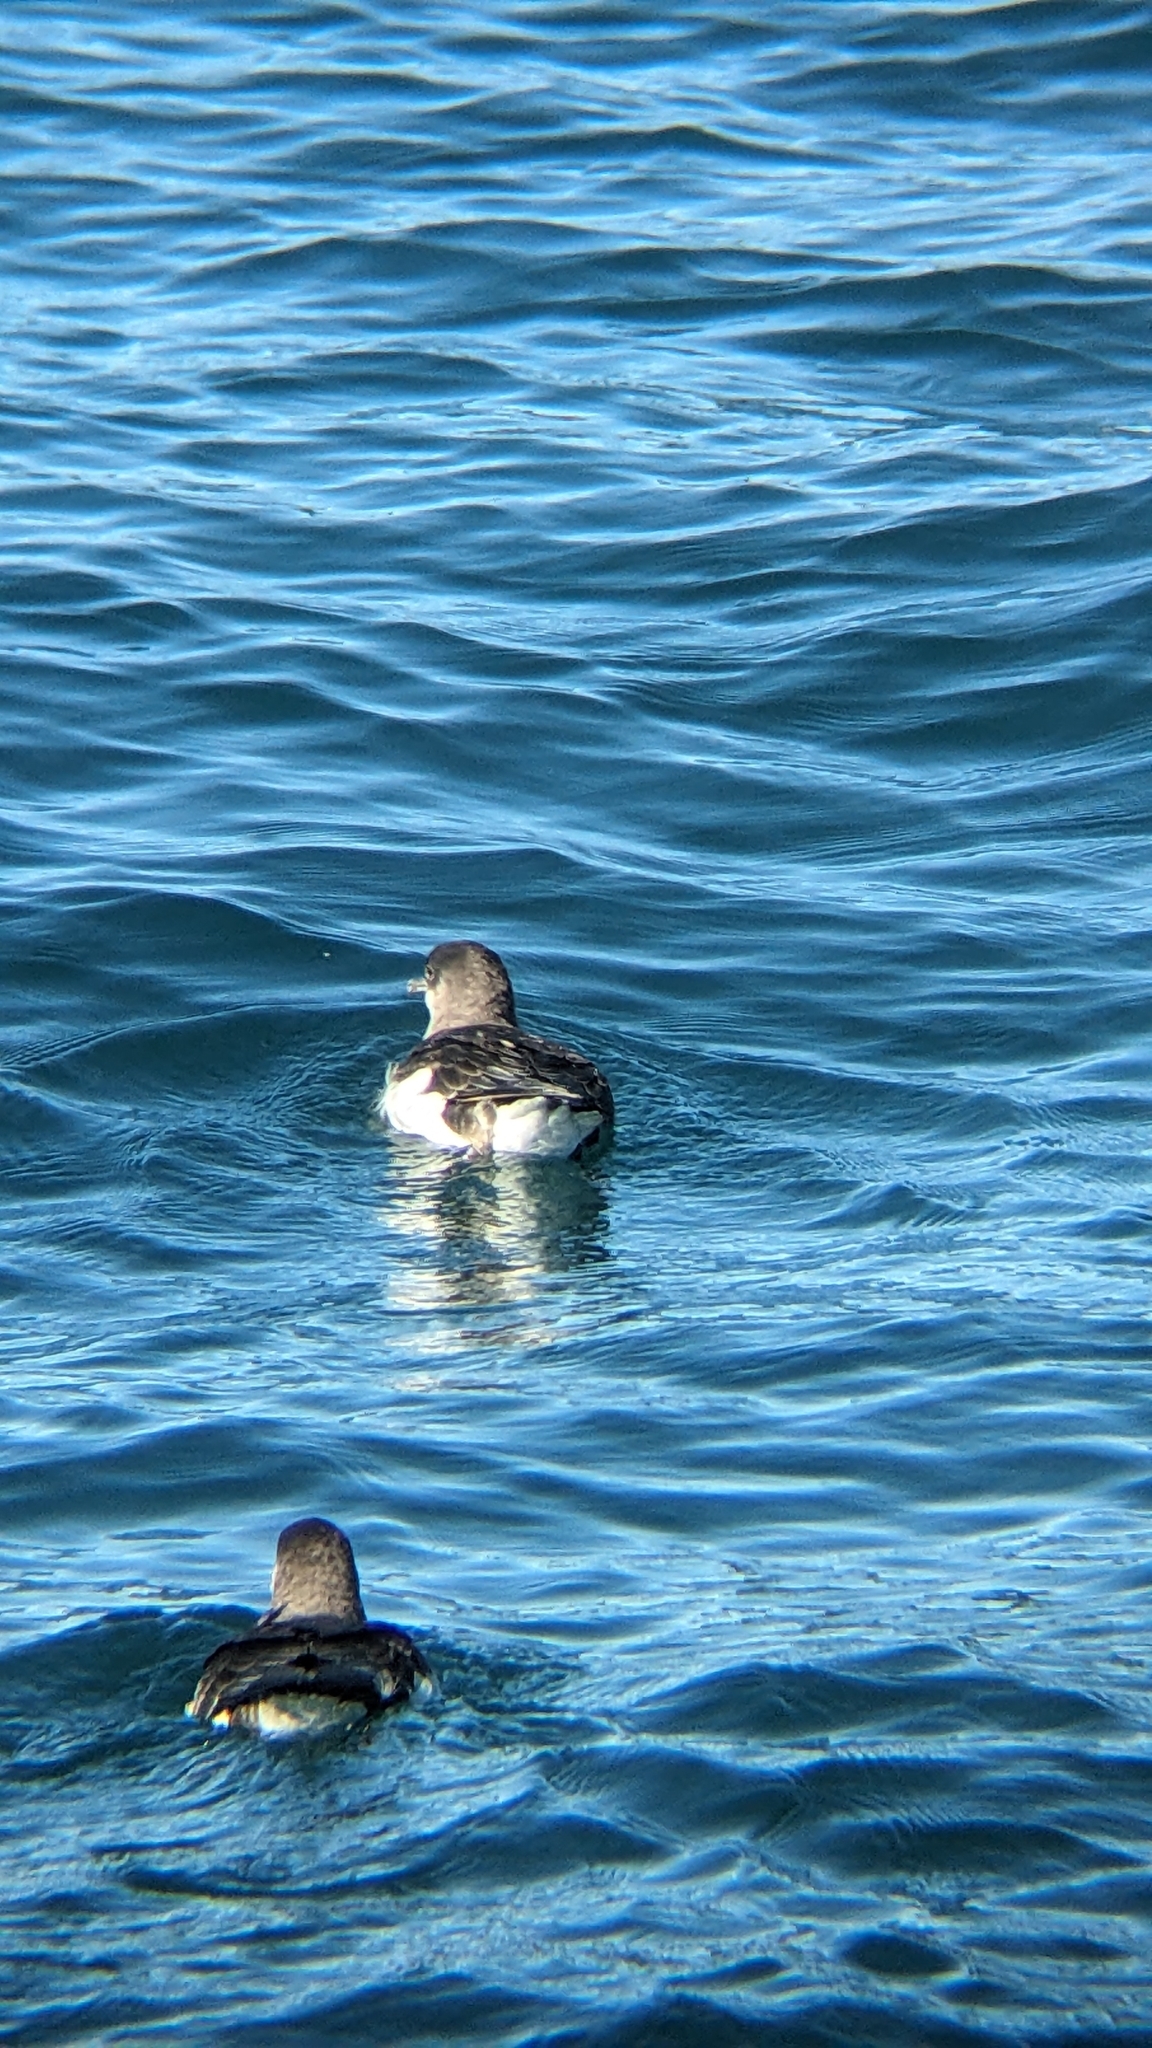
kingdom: Animalia
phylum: Chordata
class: Aves
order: Procellariiformes
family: Procellariidae
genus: Puffinus
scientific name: Puffinus gavia
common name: Fluttering shearwater
